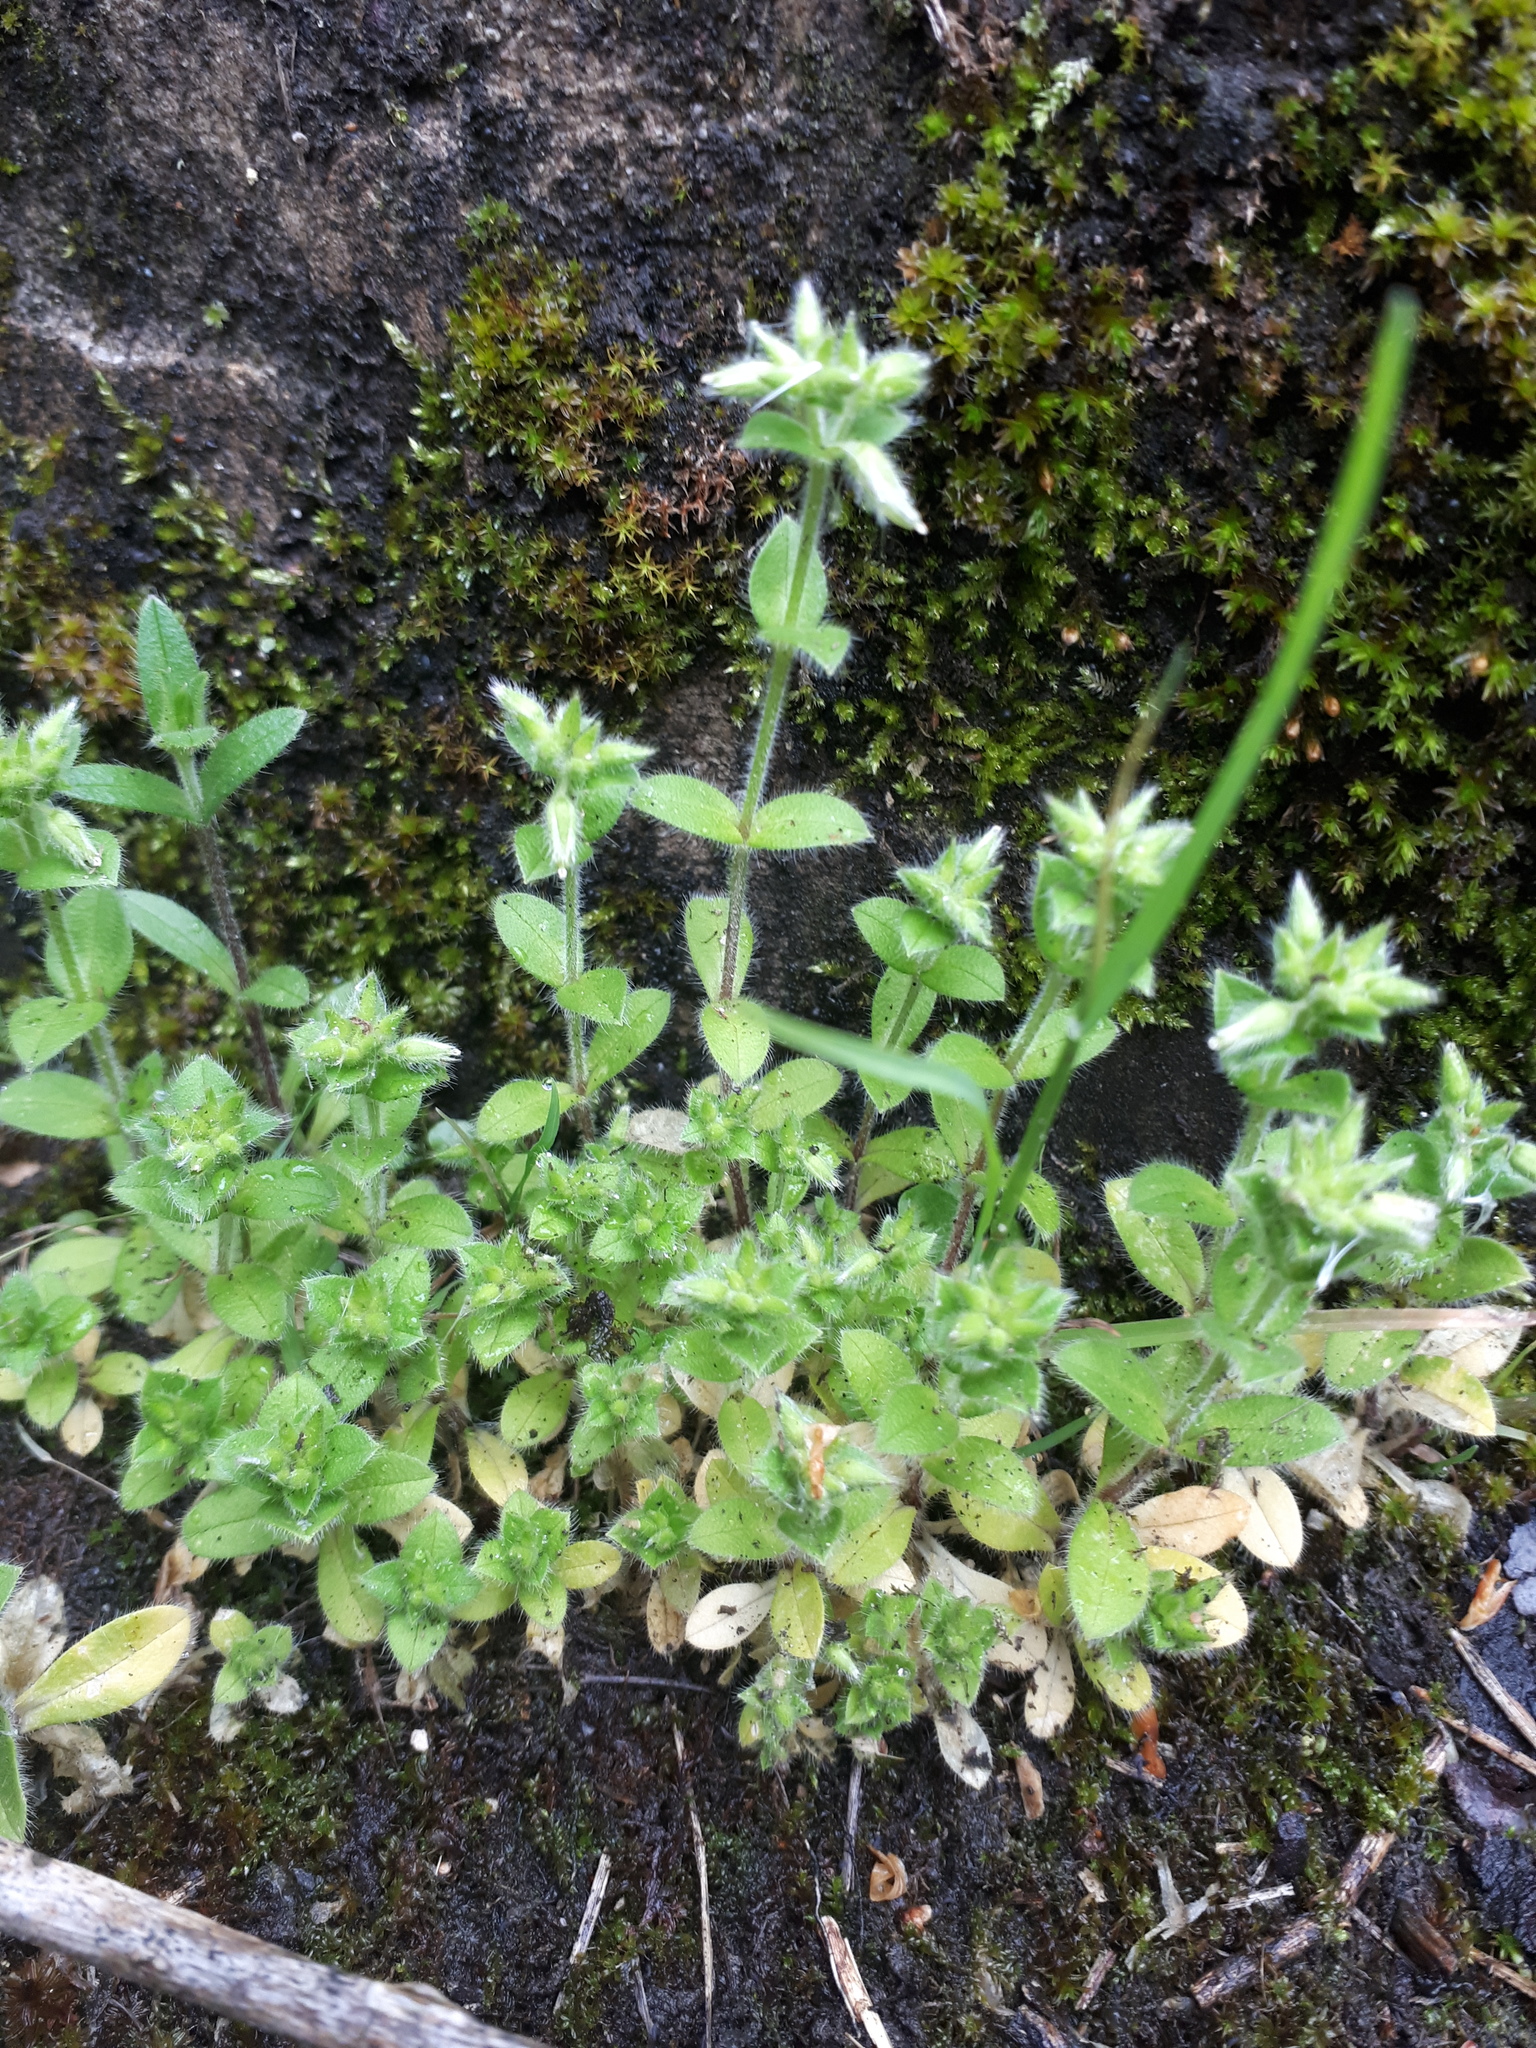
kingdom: Plantae
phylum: Tracheophyta
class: Magnoliopsida
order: Caryophyllales
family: Caryophyllaceae
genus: Cerastium
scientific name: Cerastium glomeratum
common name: Sticky chickweed
